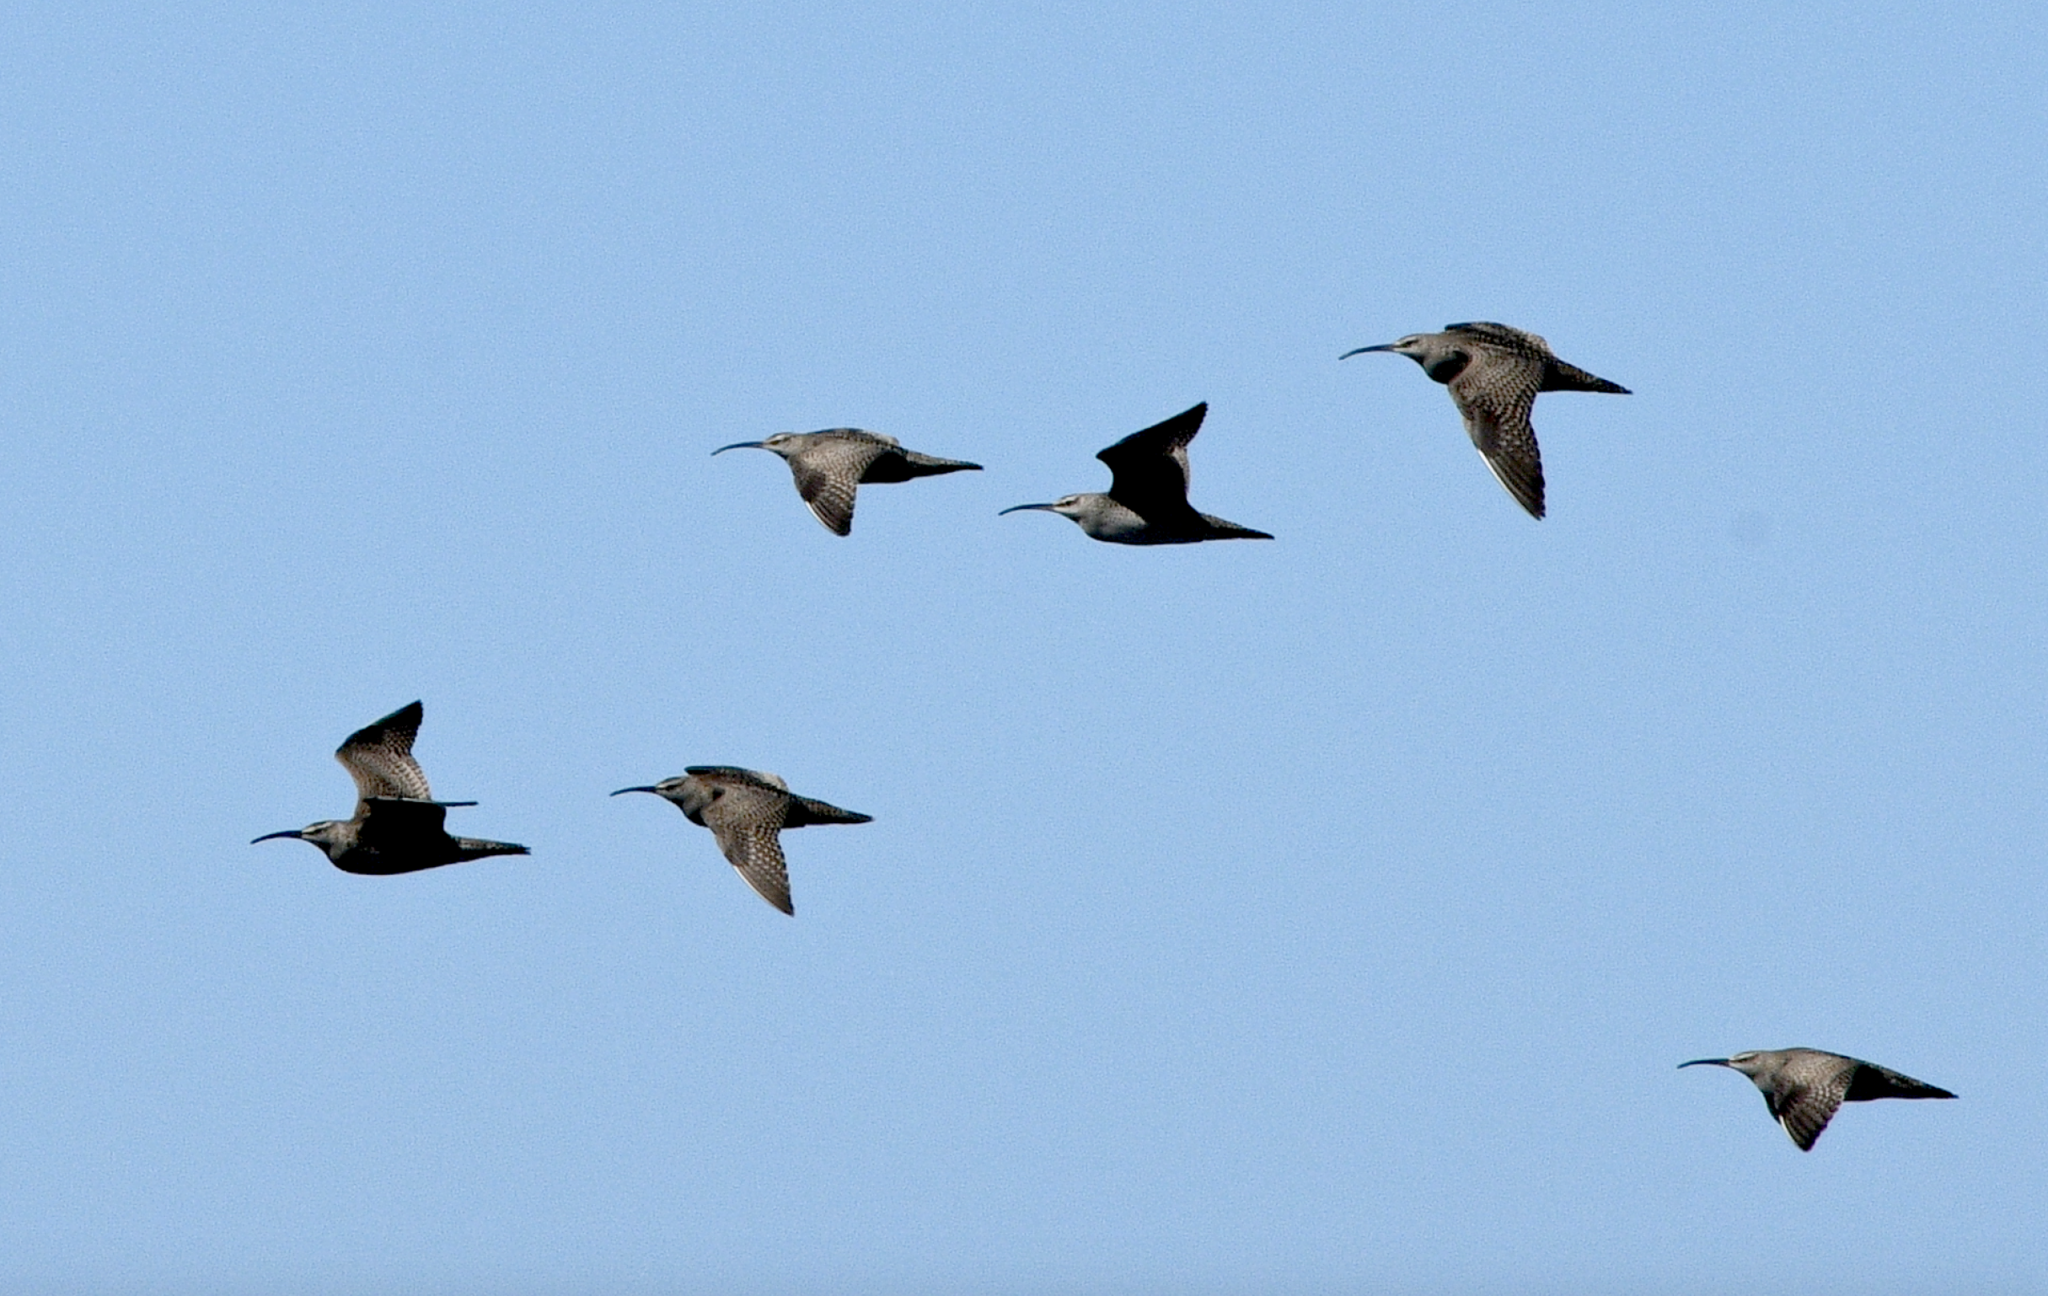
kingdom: Animalia
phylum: Chordata
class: Aves
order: Charadriiformes
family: Scolopacidae
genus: Numenius
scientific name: Numenius phaeopus
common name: Whimbrel
